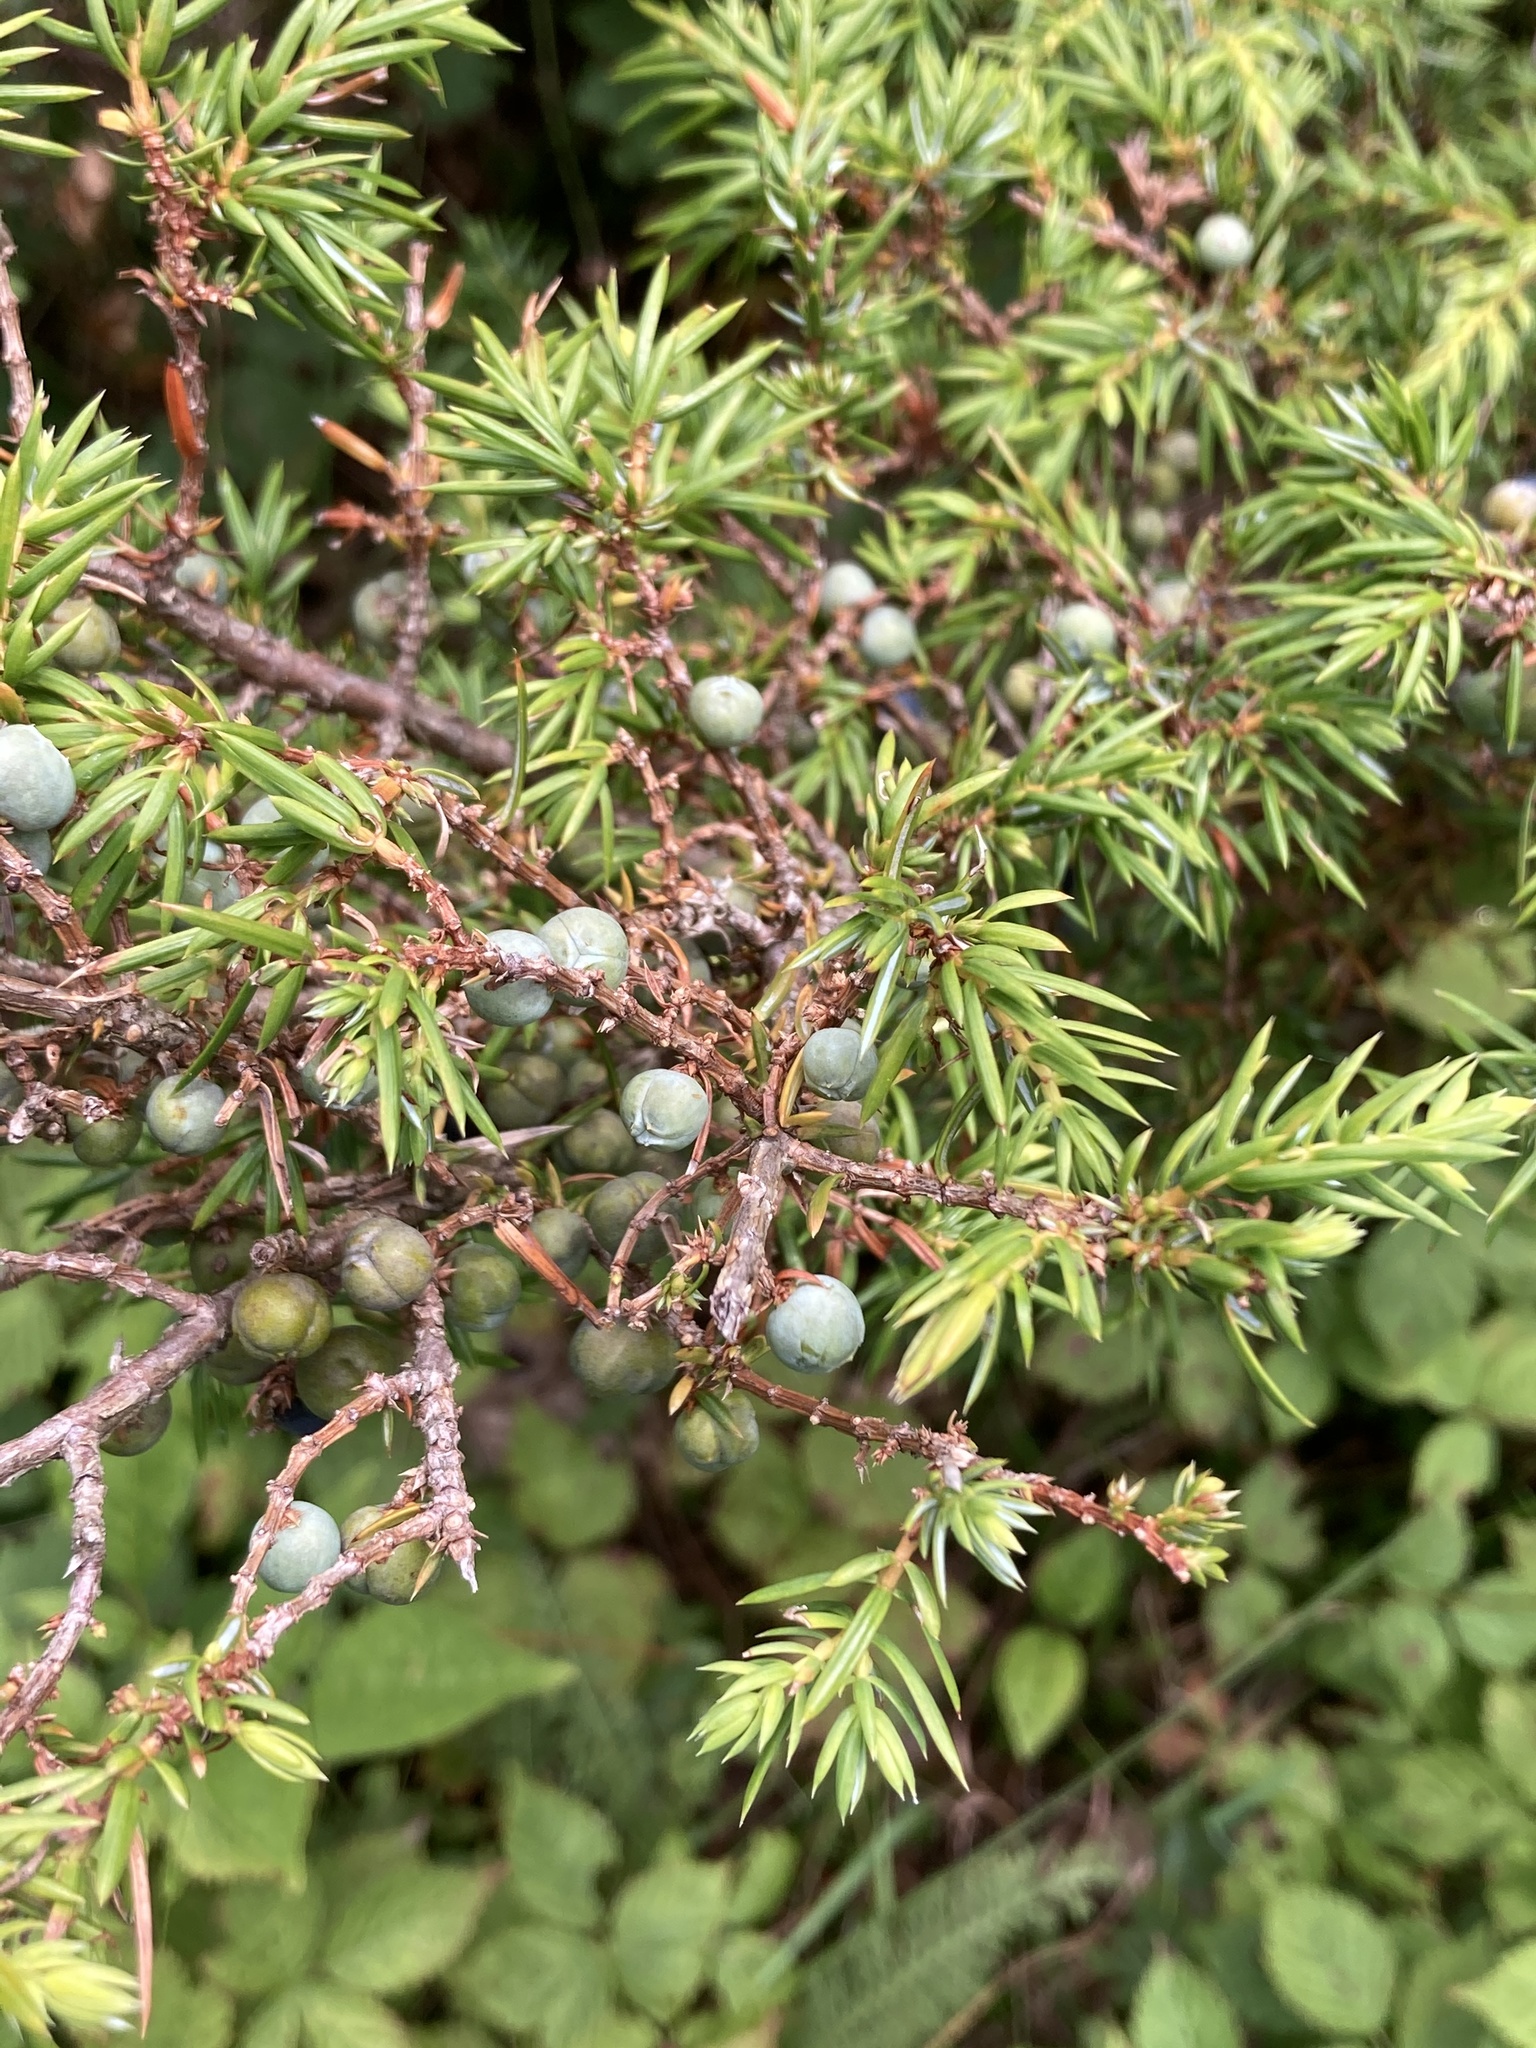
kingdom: Plantae
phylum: Tracheophyta
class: Pinopsida
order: Pinales
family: Cupressaceae
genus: Juniperus
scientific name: Juniperus communis
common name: Common juniper
